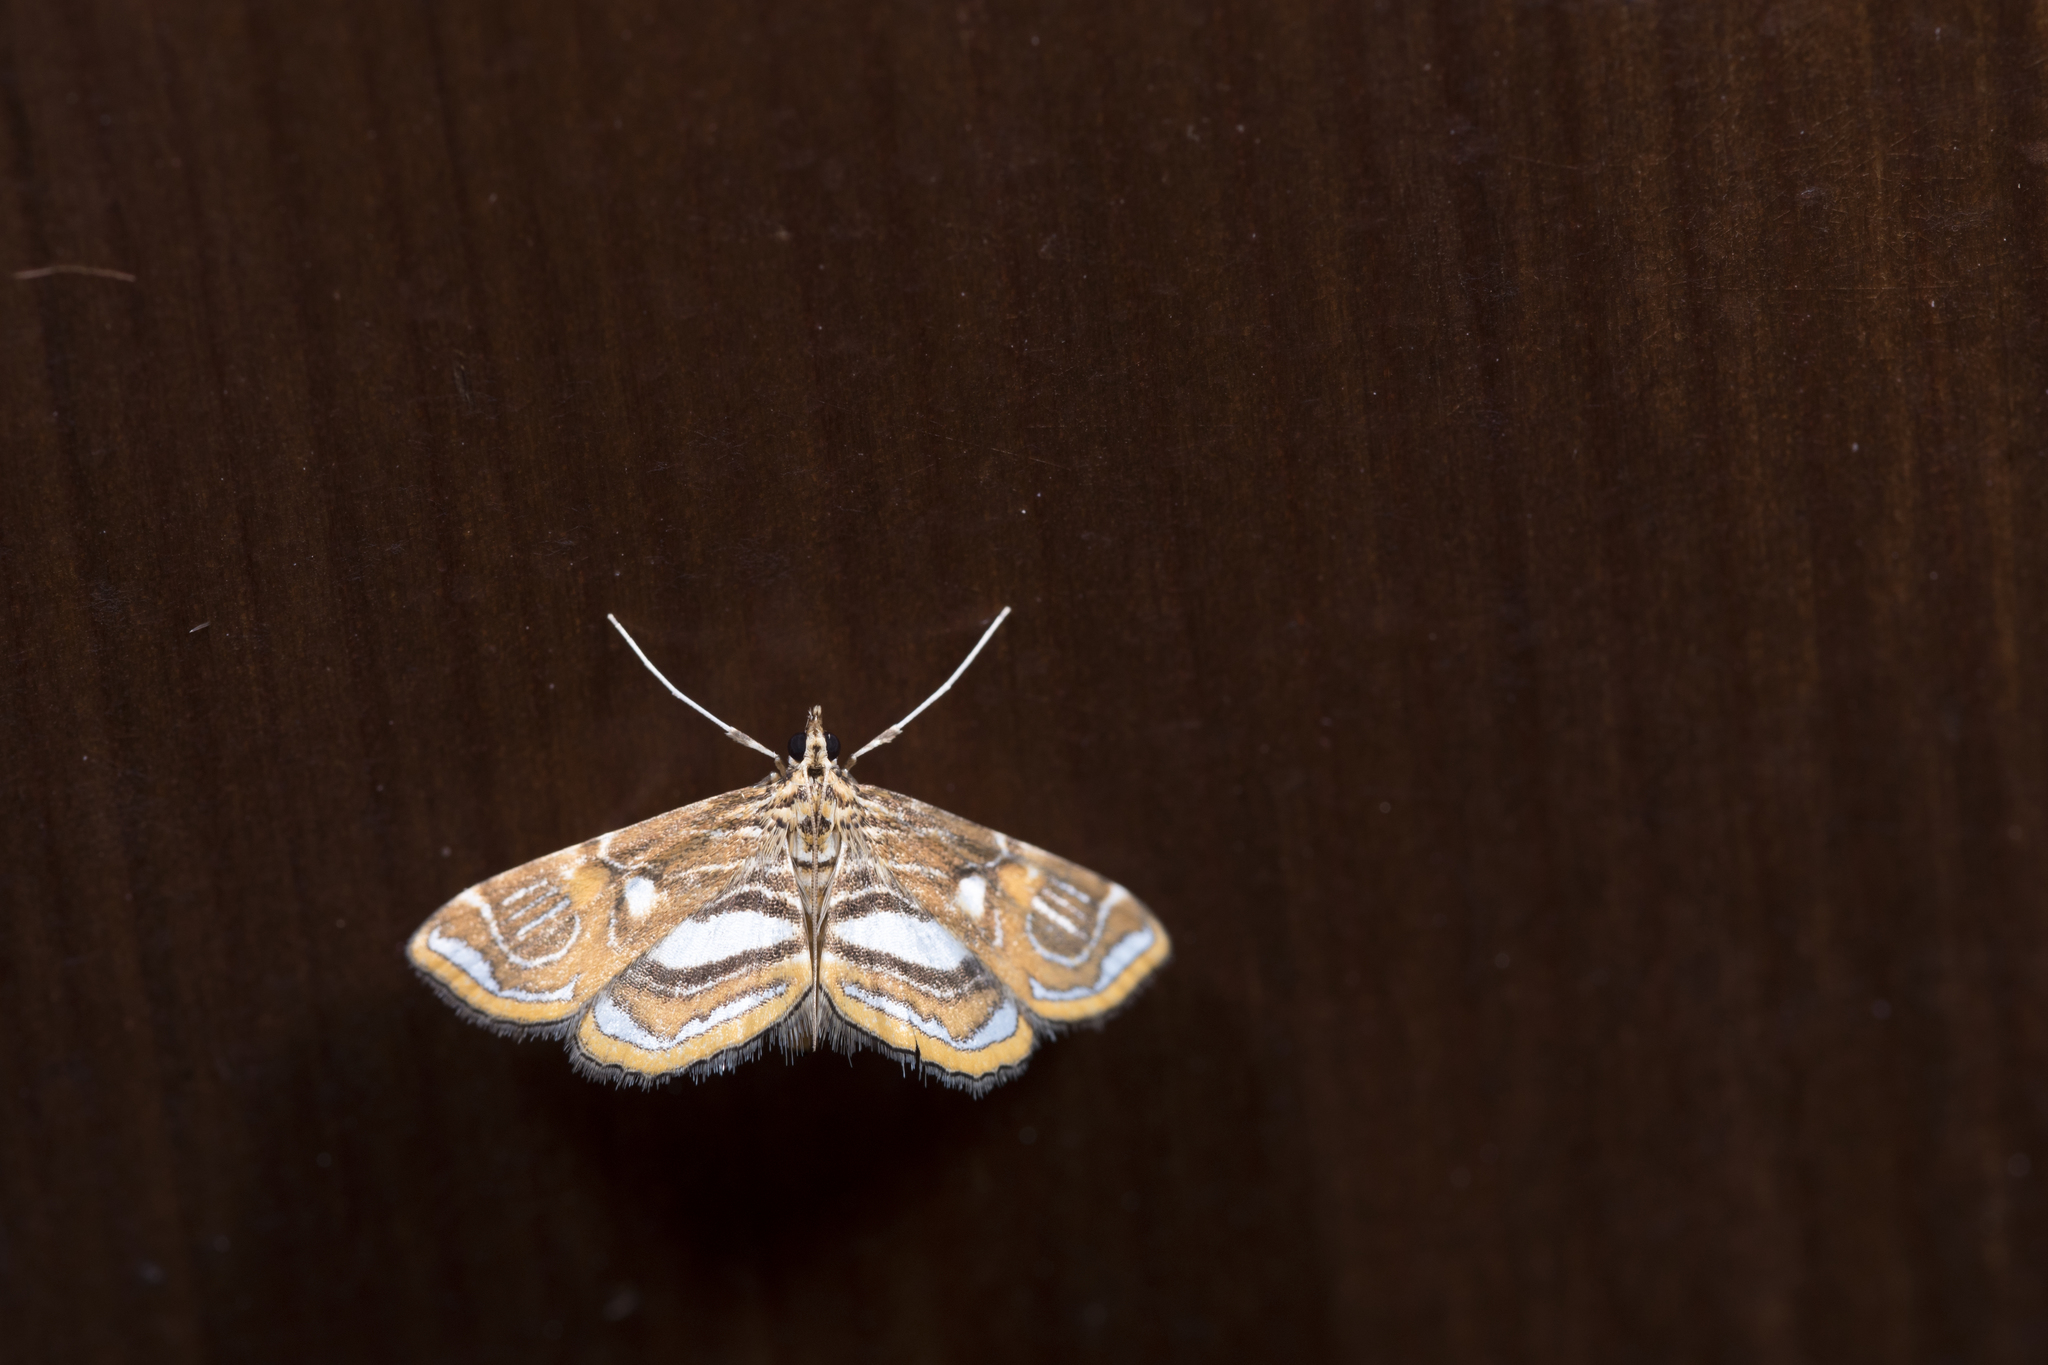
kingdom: Animalia
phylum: Arthropoda
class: Insecta
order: Lepidoptera
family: Crambidae
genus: Paracymoriza
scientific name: Paracymoriza cataclystalis
